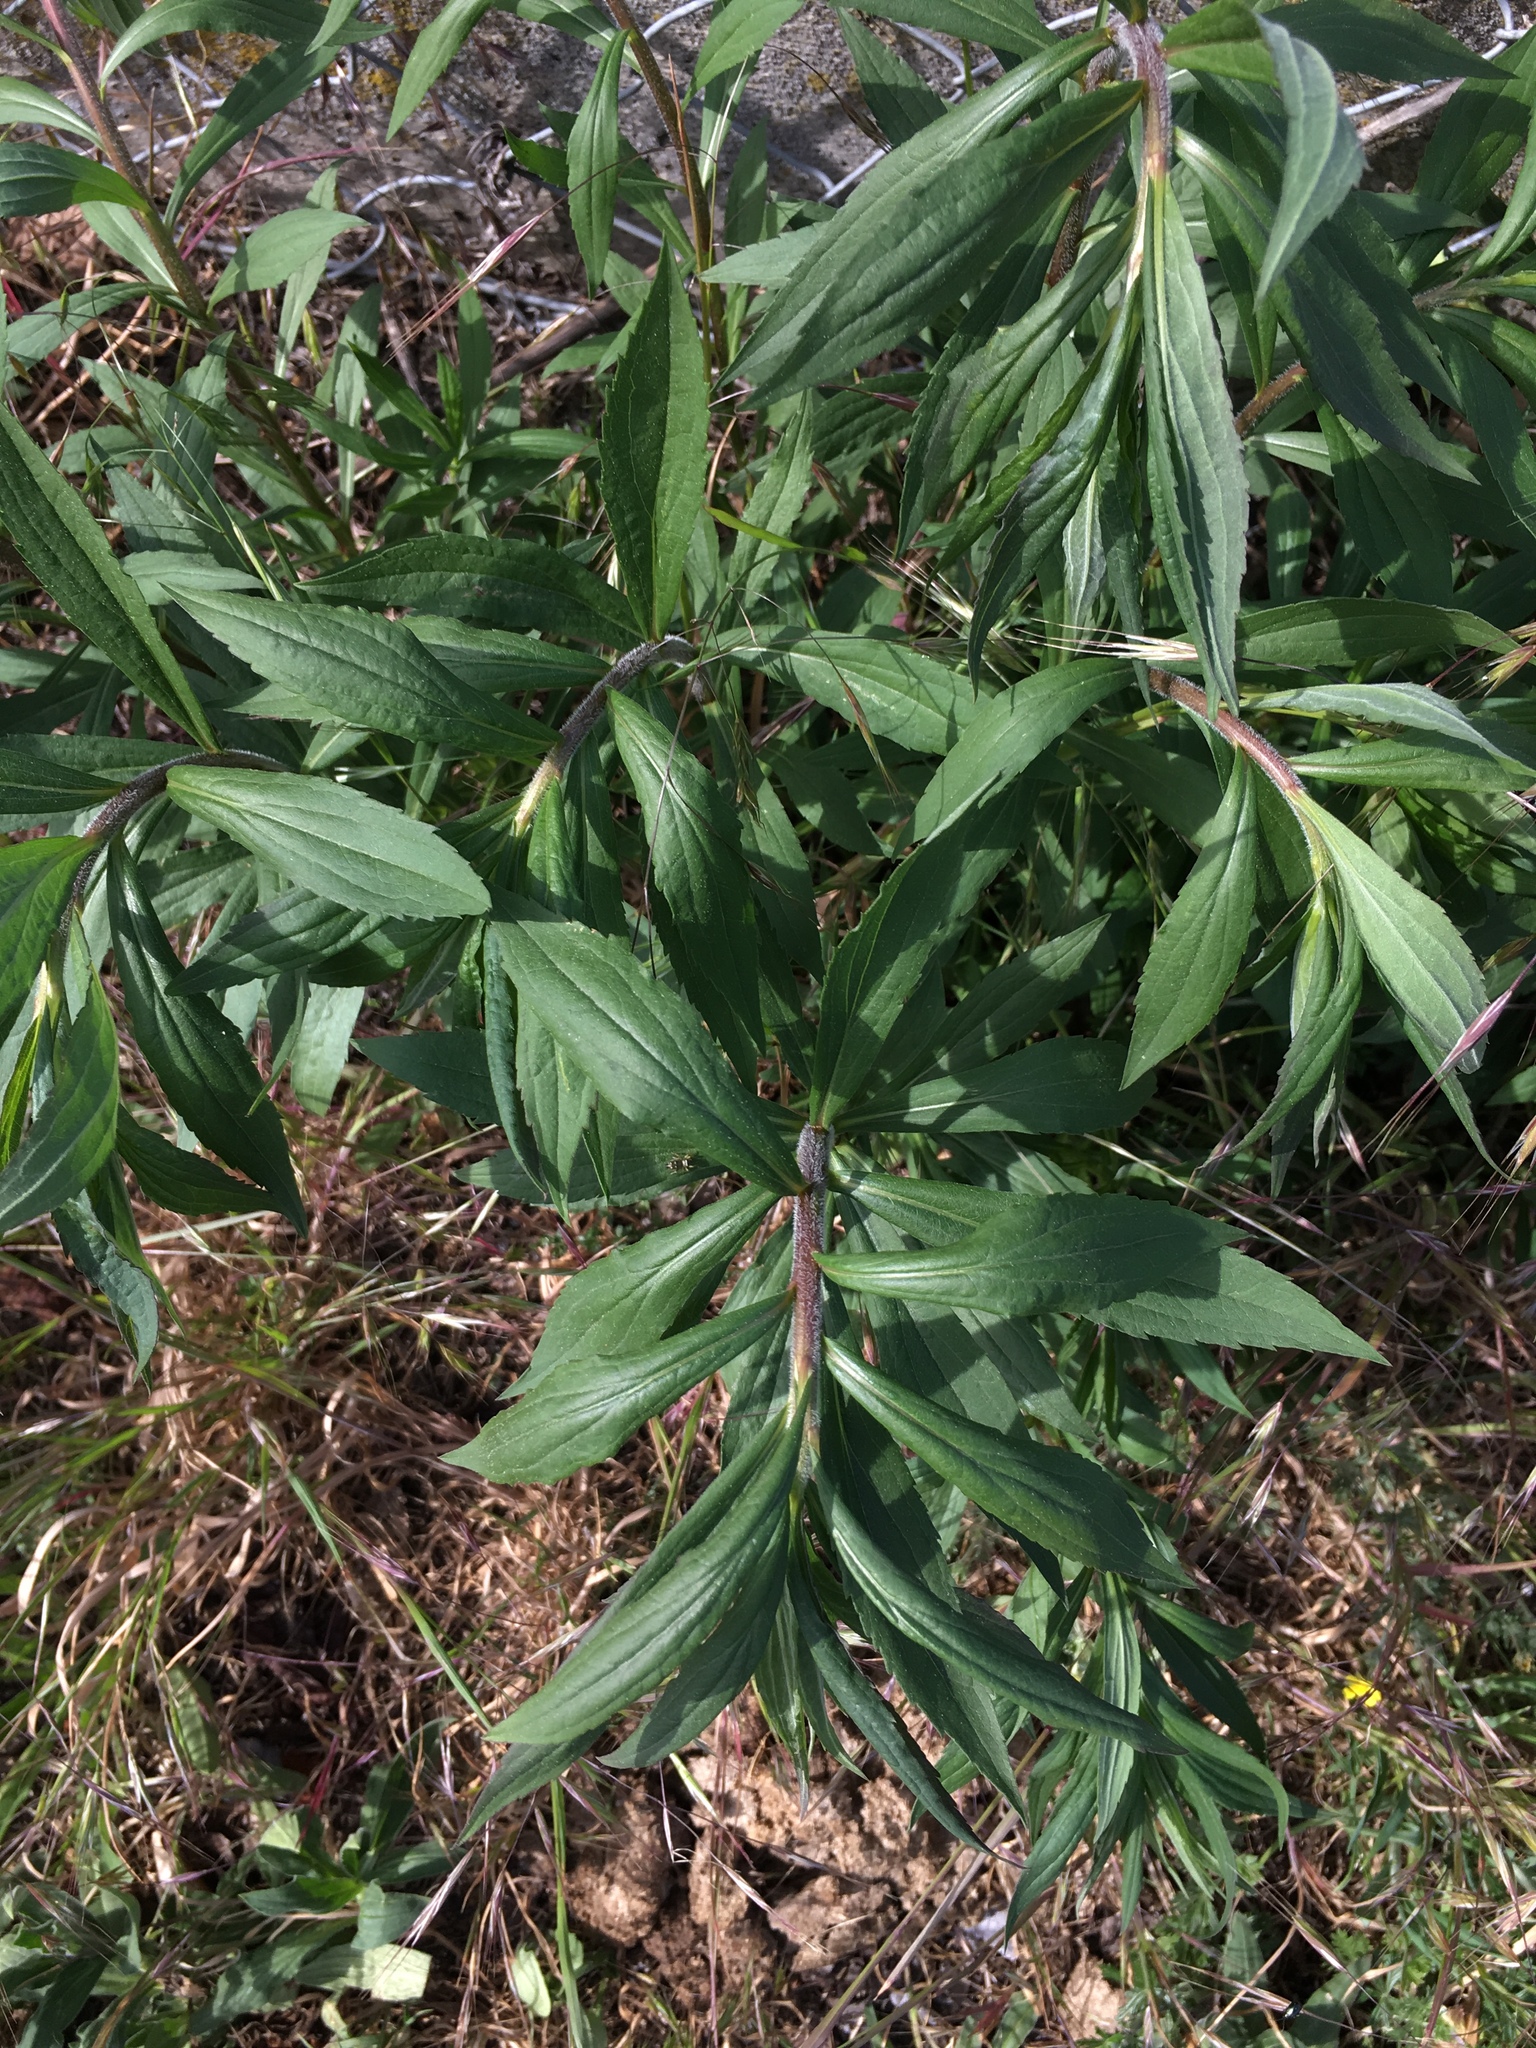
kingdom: Plantae
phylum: Tracheophyta
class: Magnoliopsida
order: Asterales
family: Asteraceae
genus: Solidago
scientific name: Solidago canadensis
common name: Canada goldenrod
